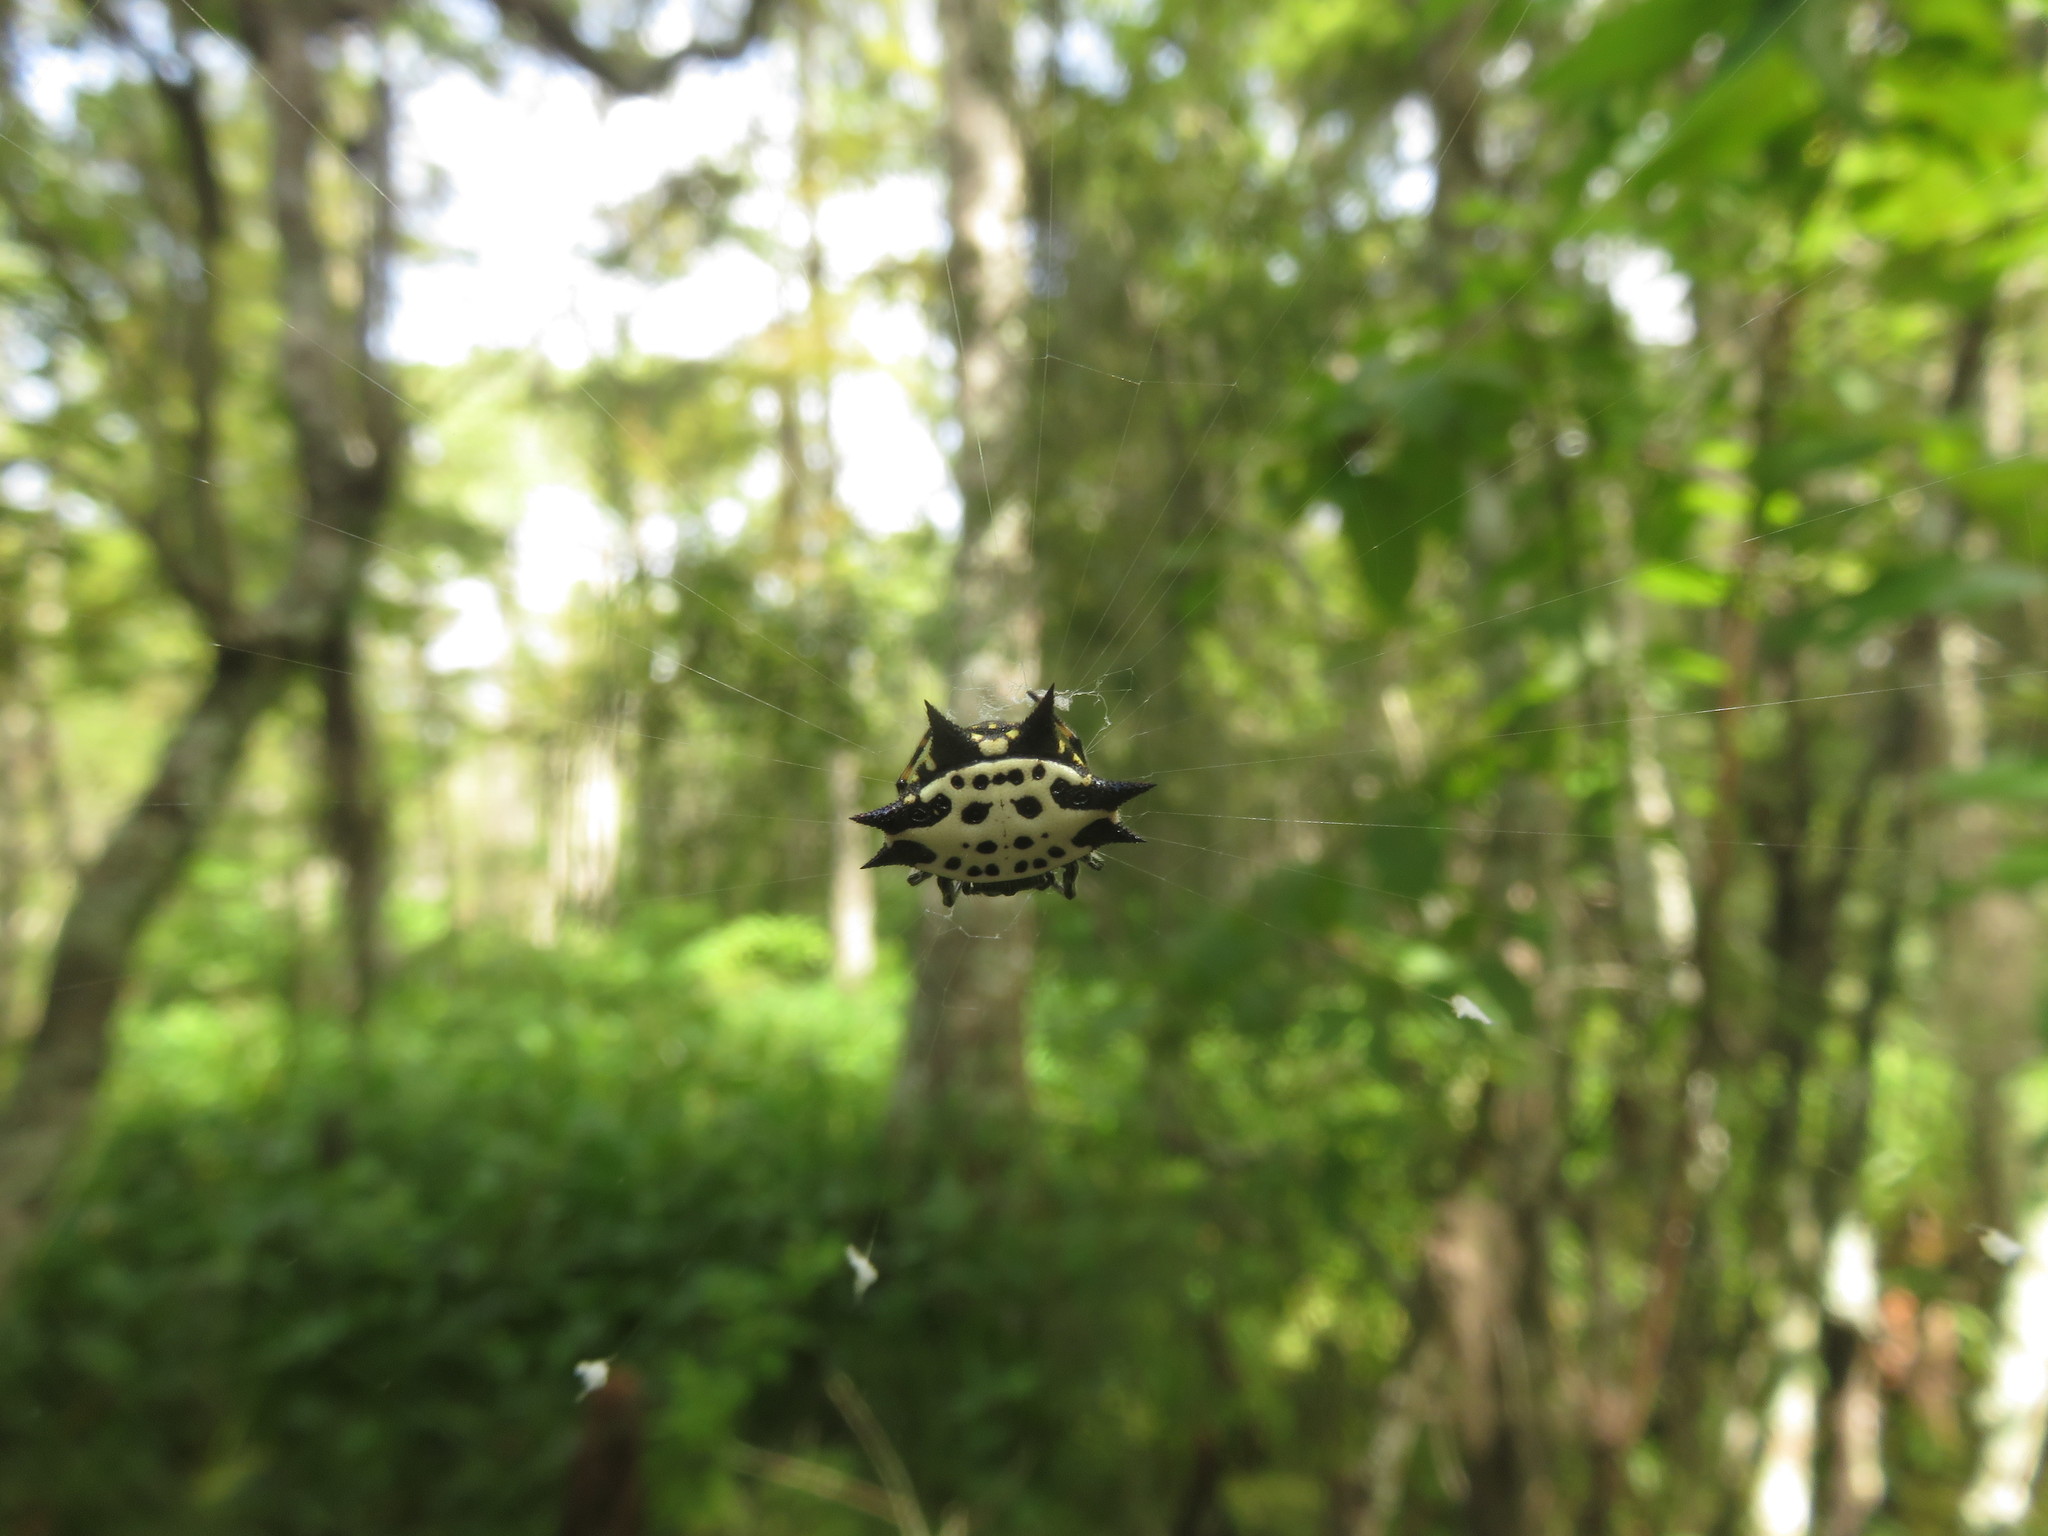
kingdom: Animalia
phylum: Arthropoda
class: Arachnida
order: Araneae
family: Araneidae
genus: Gasteracantha
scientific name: Gasteracantha cancriformis
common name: Orb weavers
